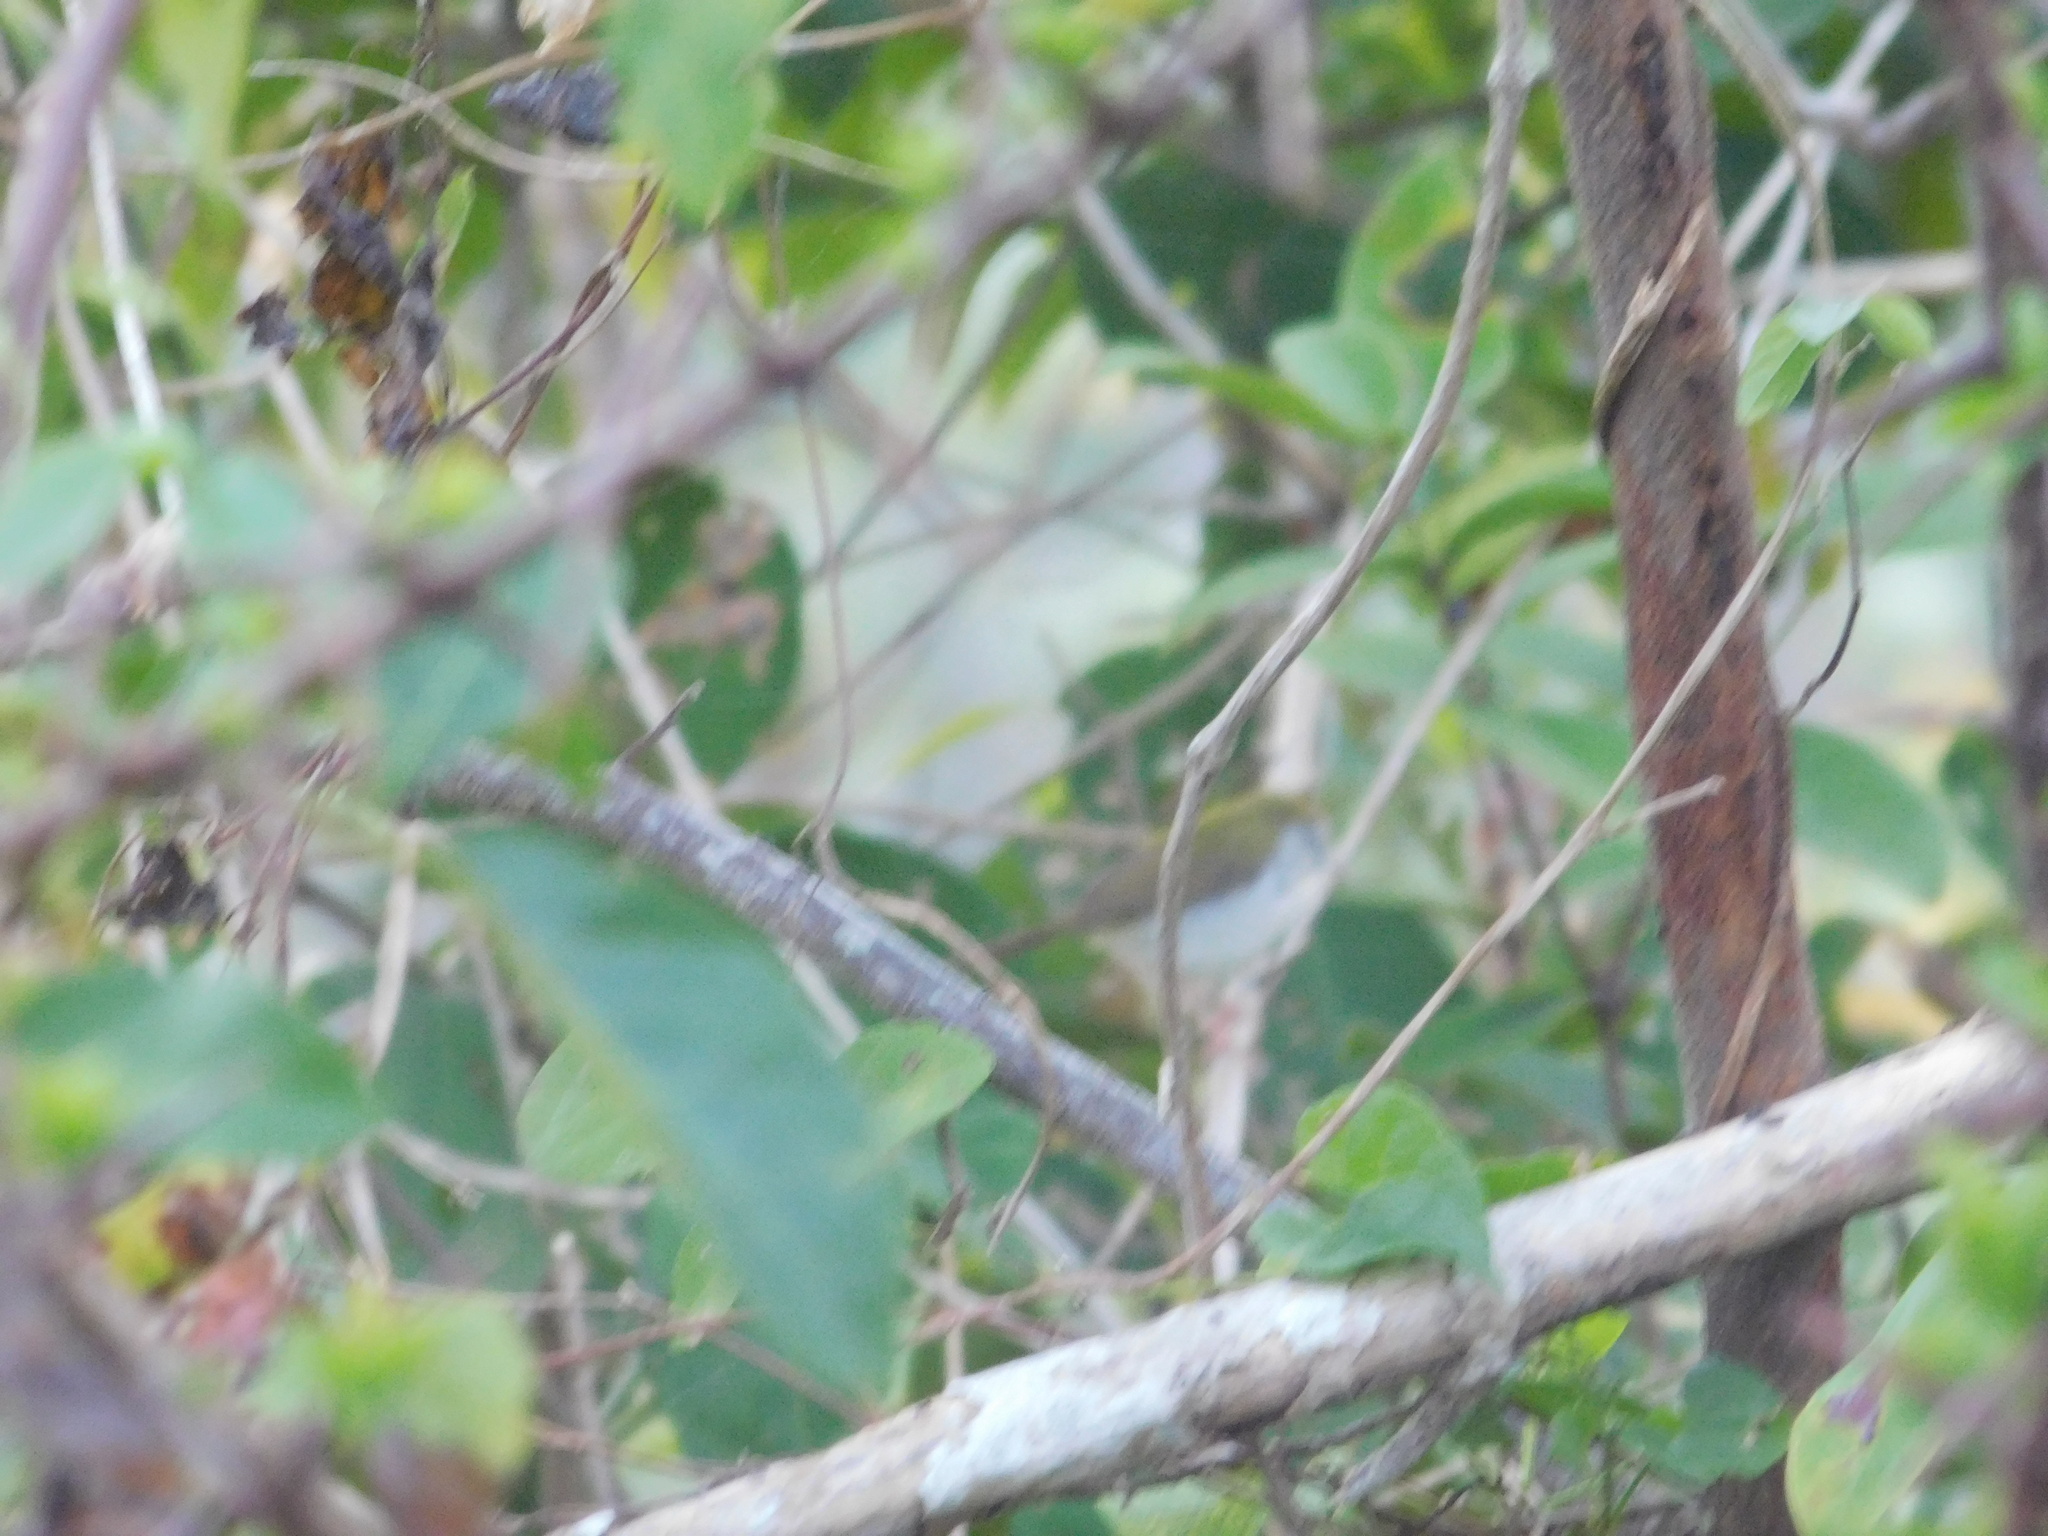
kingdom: Animalia
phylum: Chordata
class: Aves
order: Passeriformes
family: Cisticolidae
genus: Orthotomus
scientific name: Orthotomus sutorius
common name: Common tailorbird
